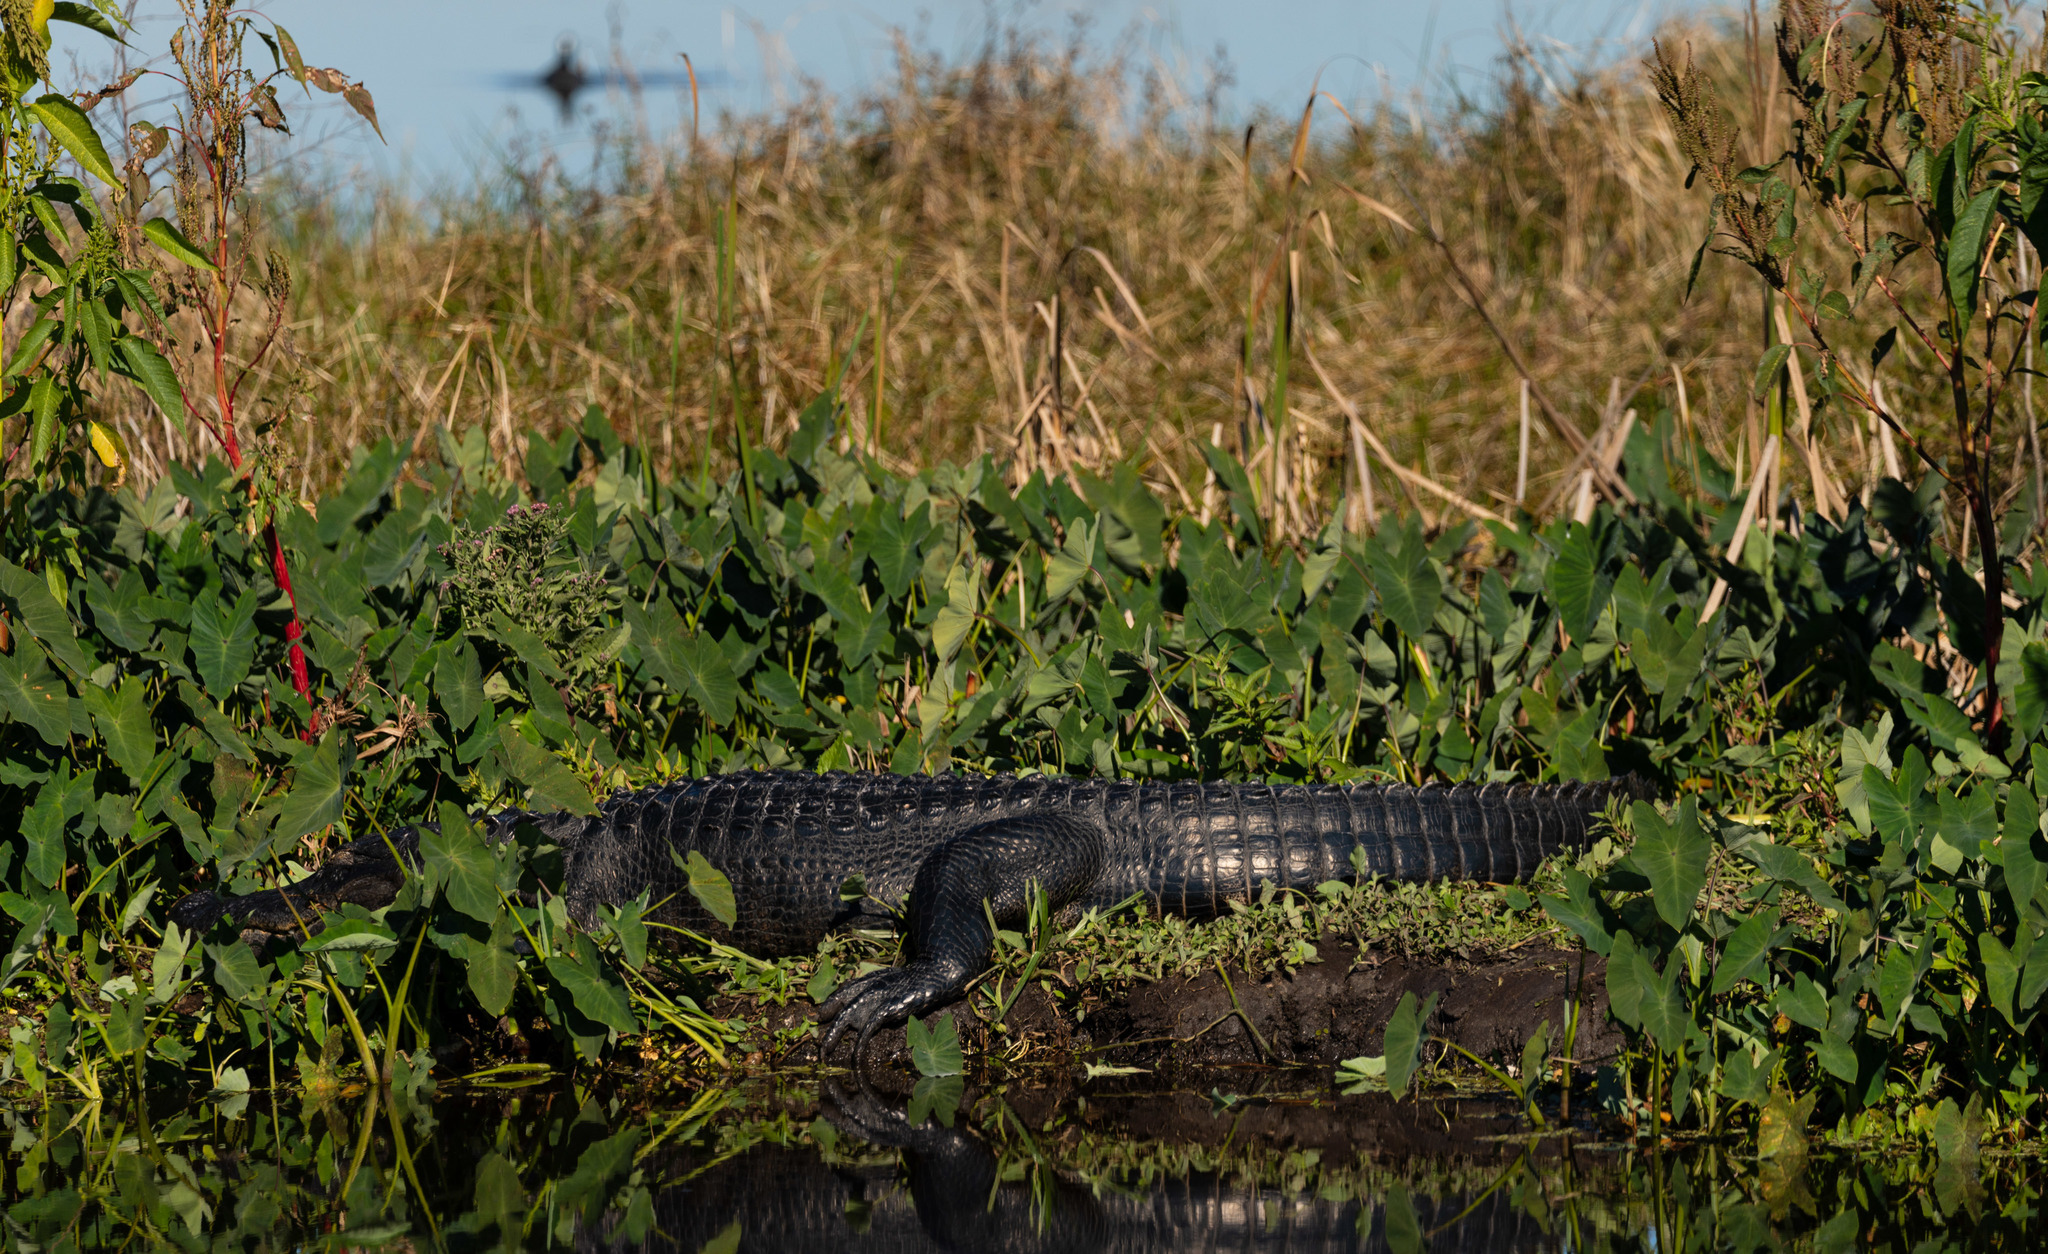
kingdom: Animalia
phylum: Chordata
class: Crocodylia
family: Alligatoridae
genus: Alligator
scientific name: Alligator mississippiensis
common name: American alligator
